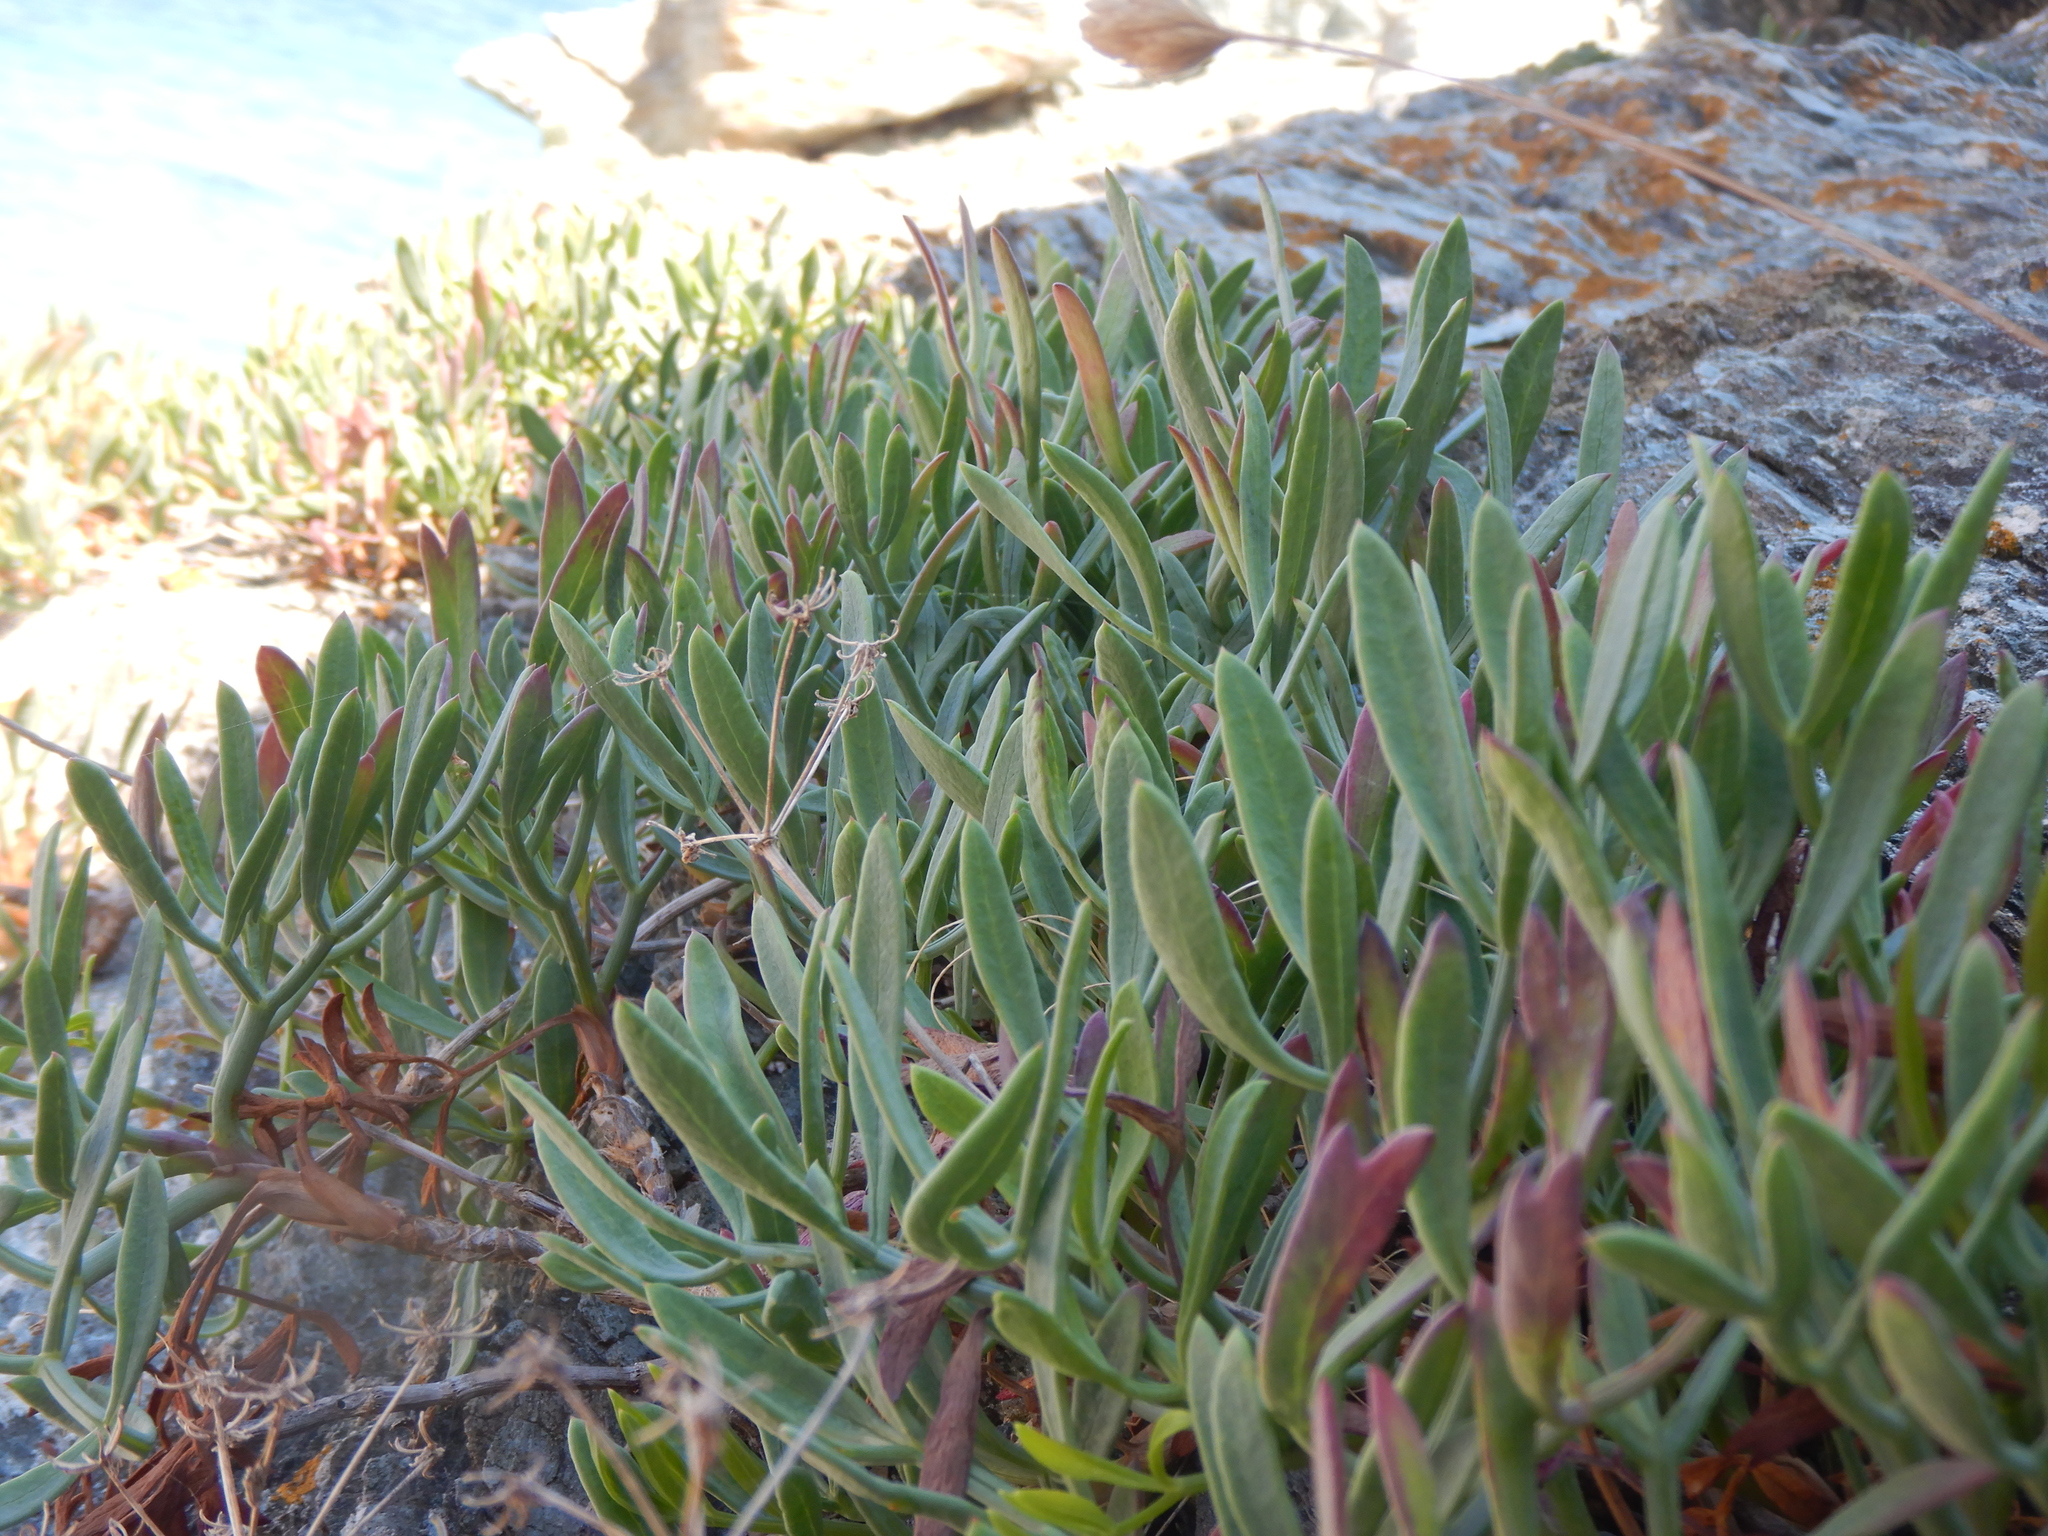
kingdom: Plantae
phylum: Tracheophyta
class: Magnoliopsida
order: Apiales
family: Apiaceae
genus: Crithmum
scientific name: Crithmum maritimum
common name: Rock samphire
